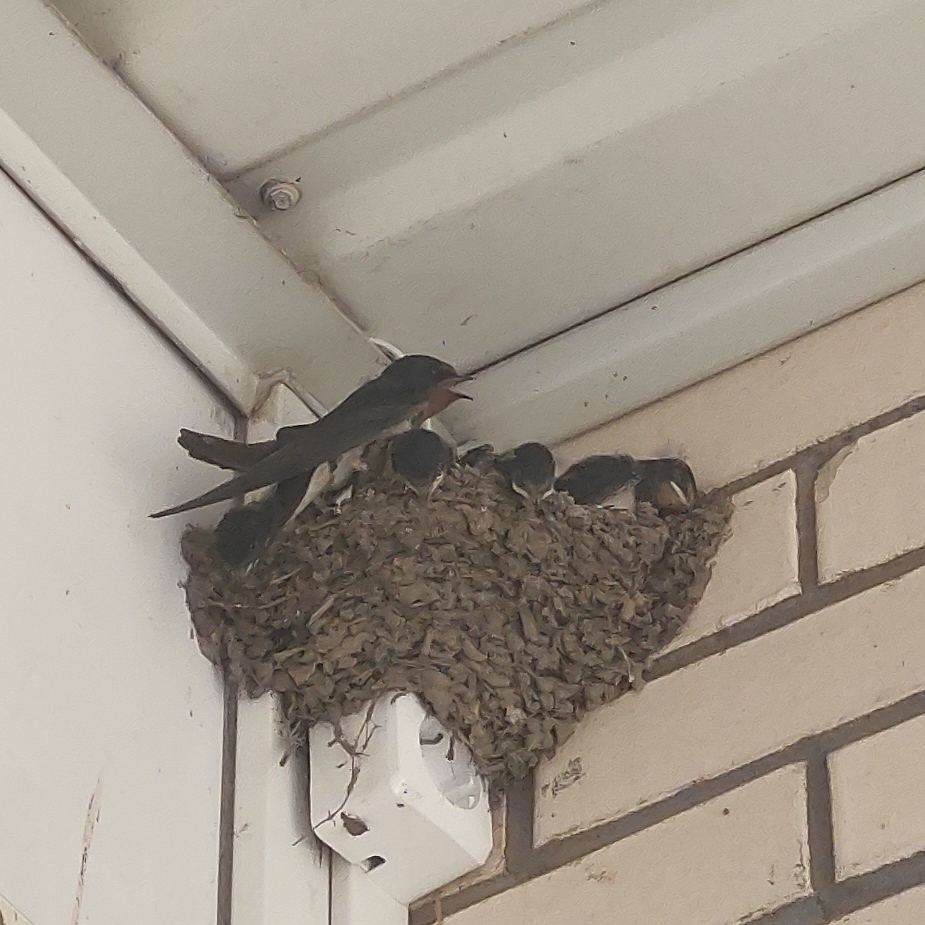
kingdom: Animalia
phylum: Chordata
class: Aves
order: Passeriformes
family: Hirundinidae
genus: Hirundo
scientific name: Hirundo rustica
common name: Barn swallow
